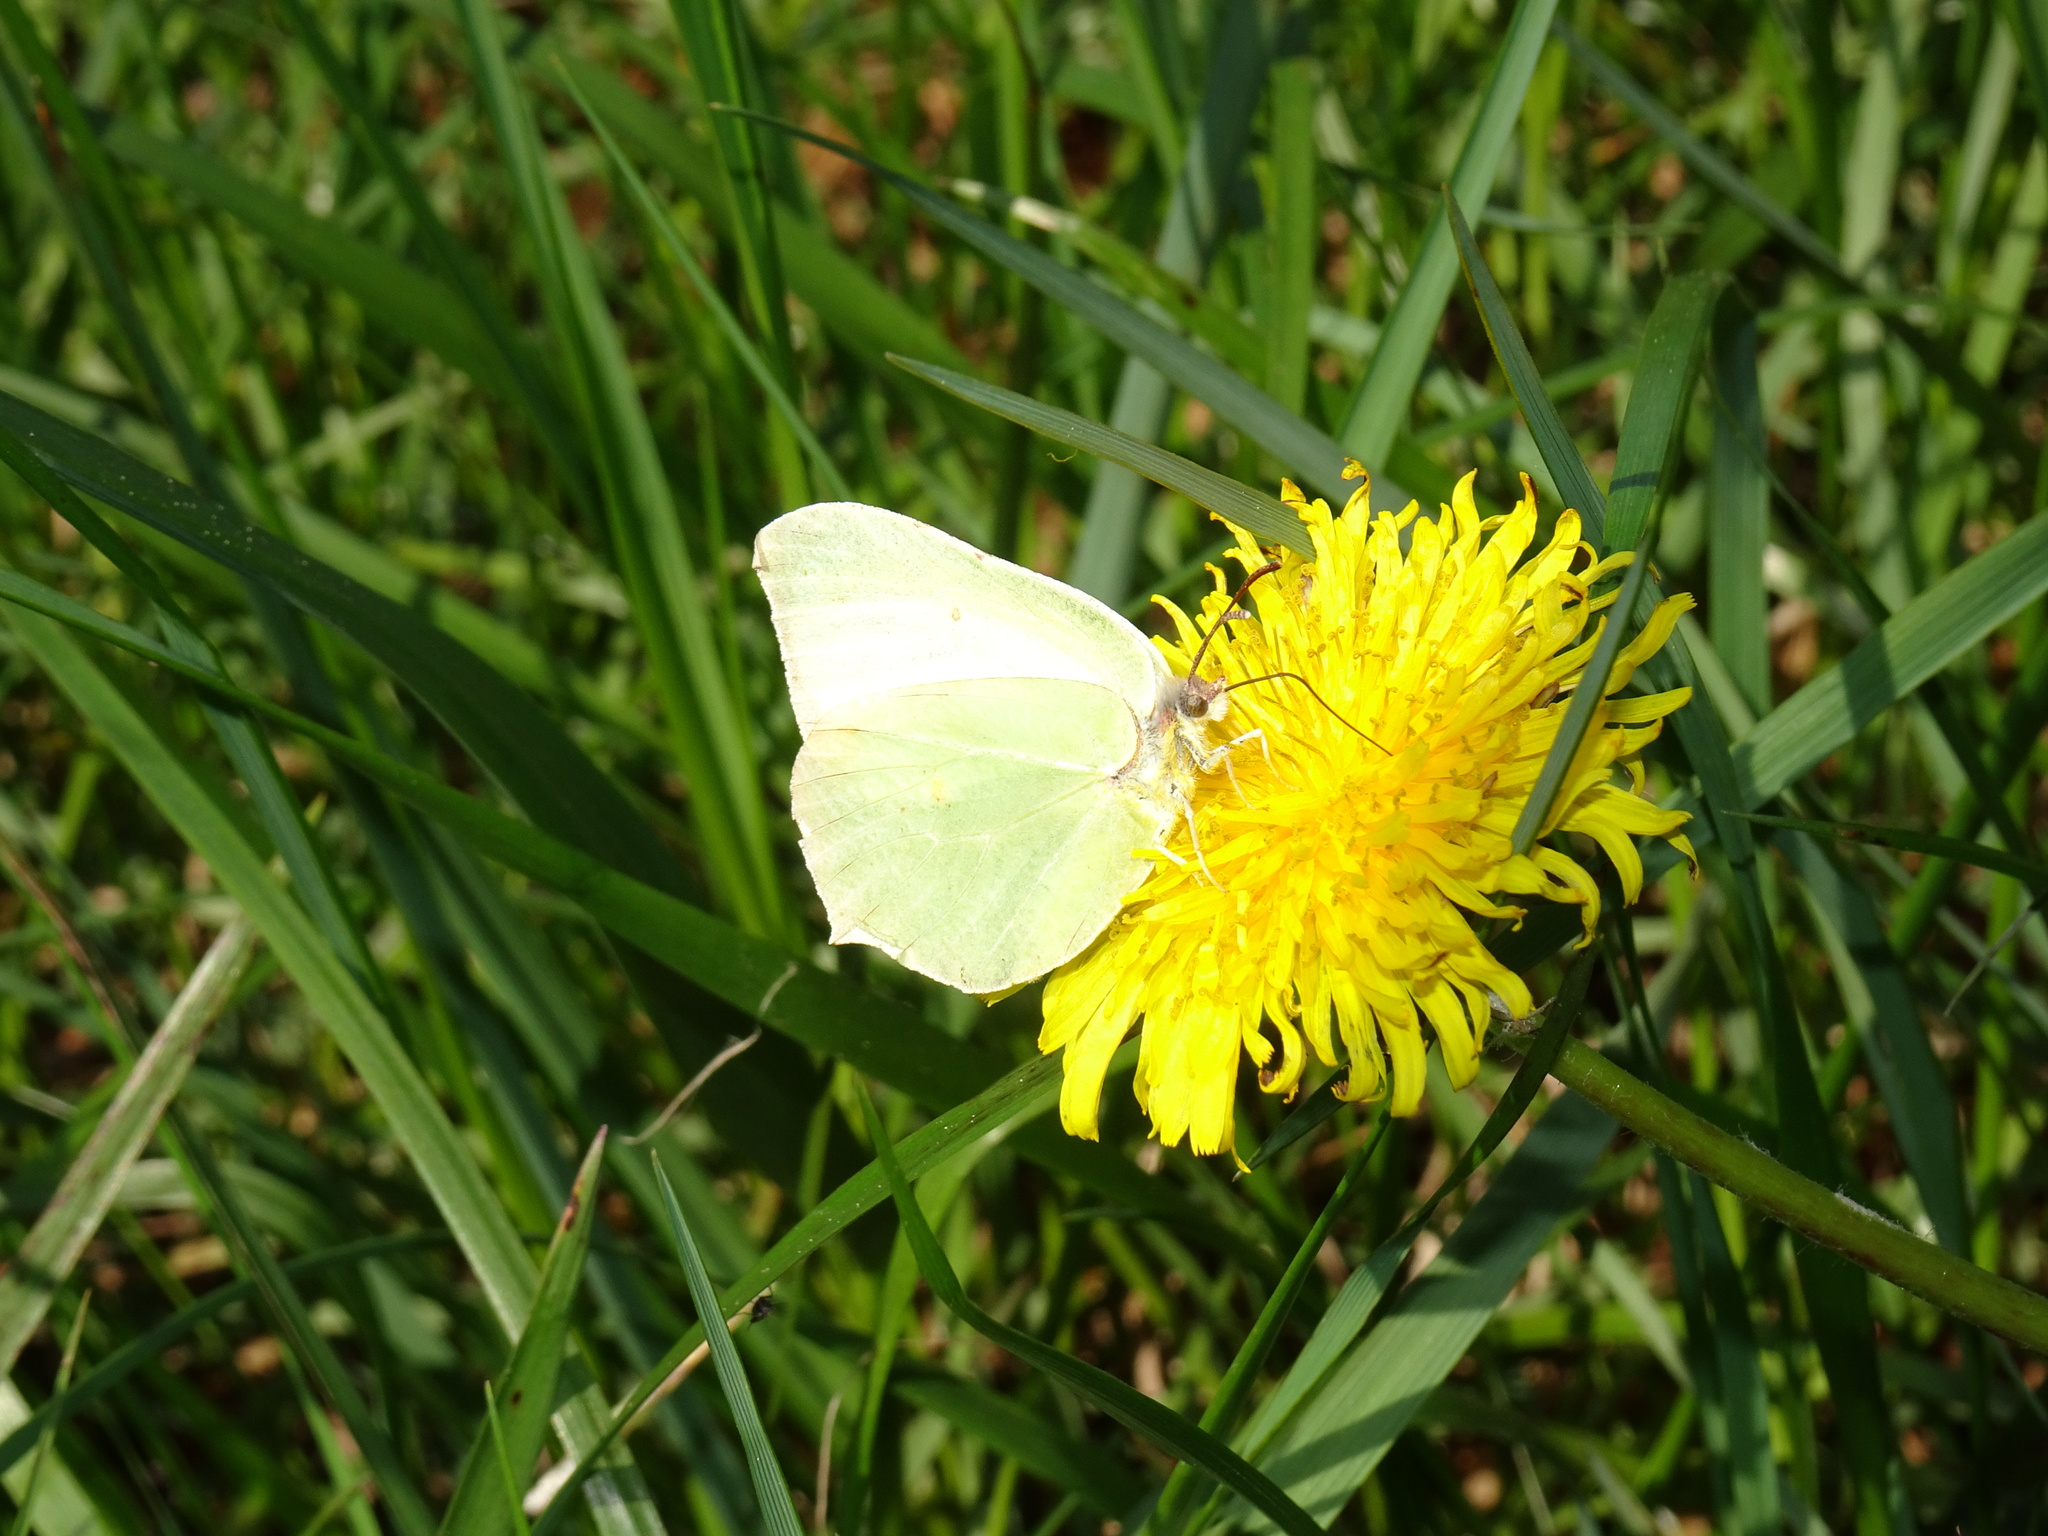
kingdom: Animalia
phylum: Arthropoda
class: Insecta
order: Lepidoptera
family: Pieridae
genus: Gonepteryx
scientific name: Gonepteryx rhamni
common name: Brimstone
